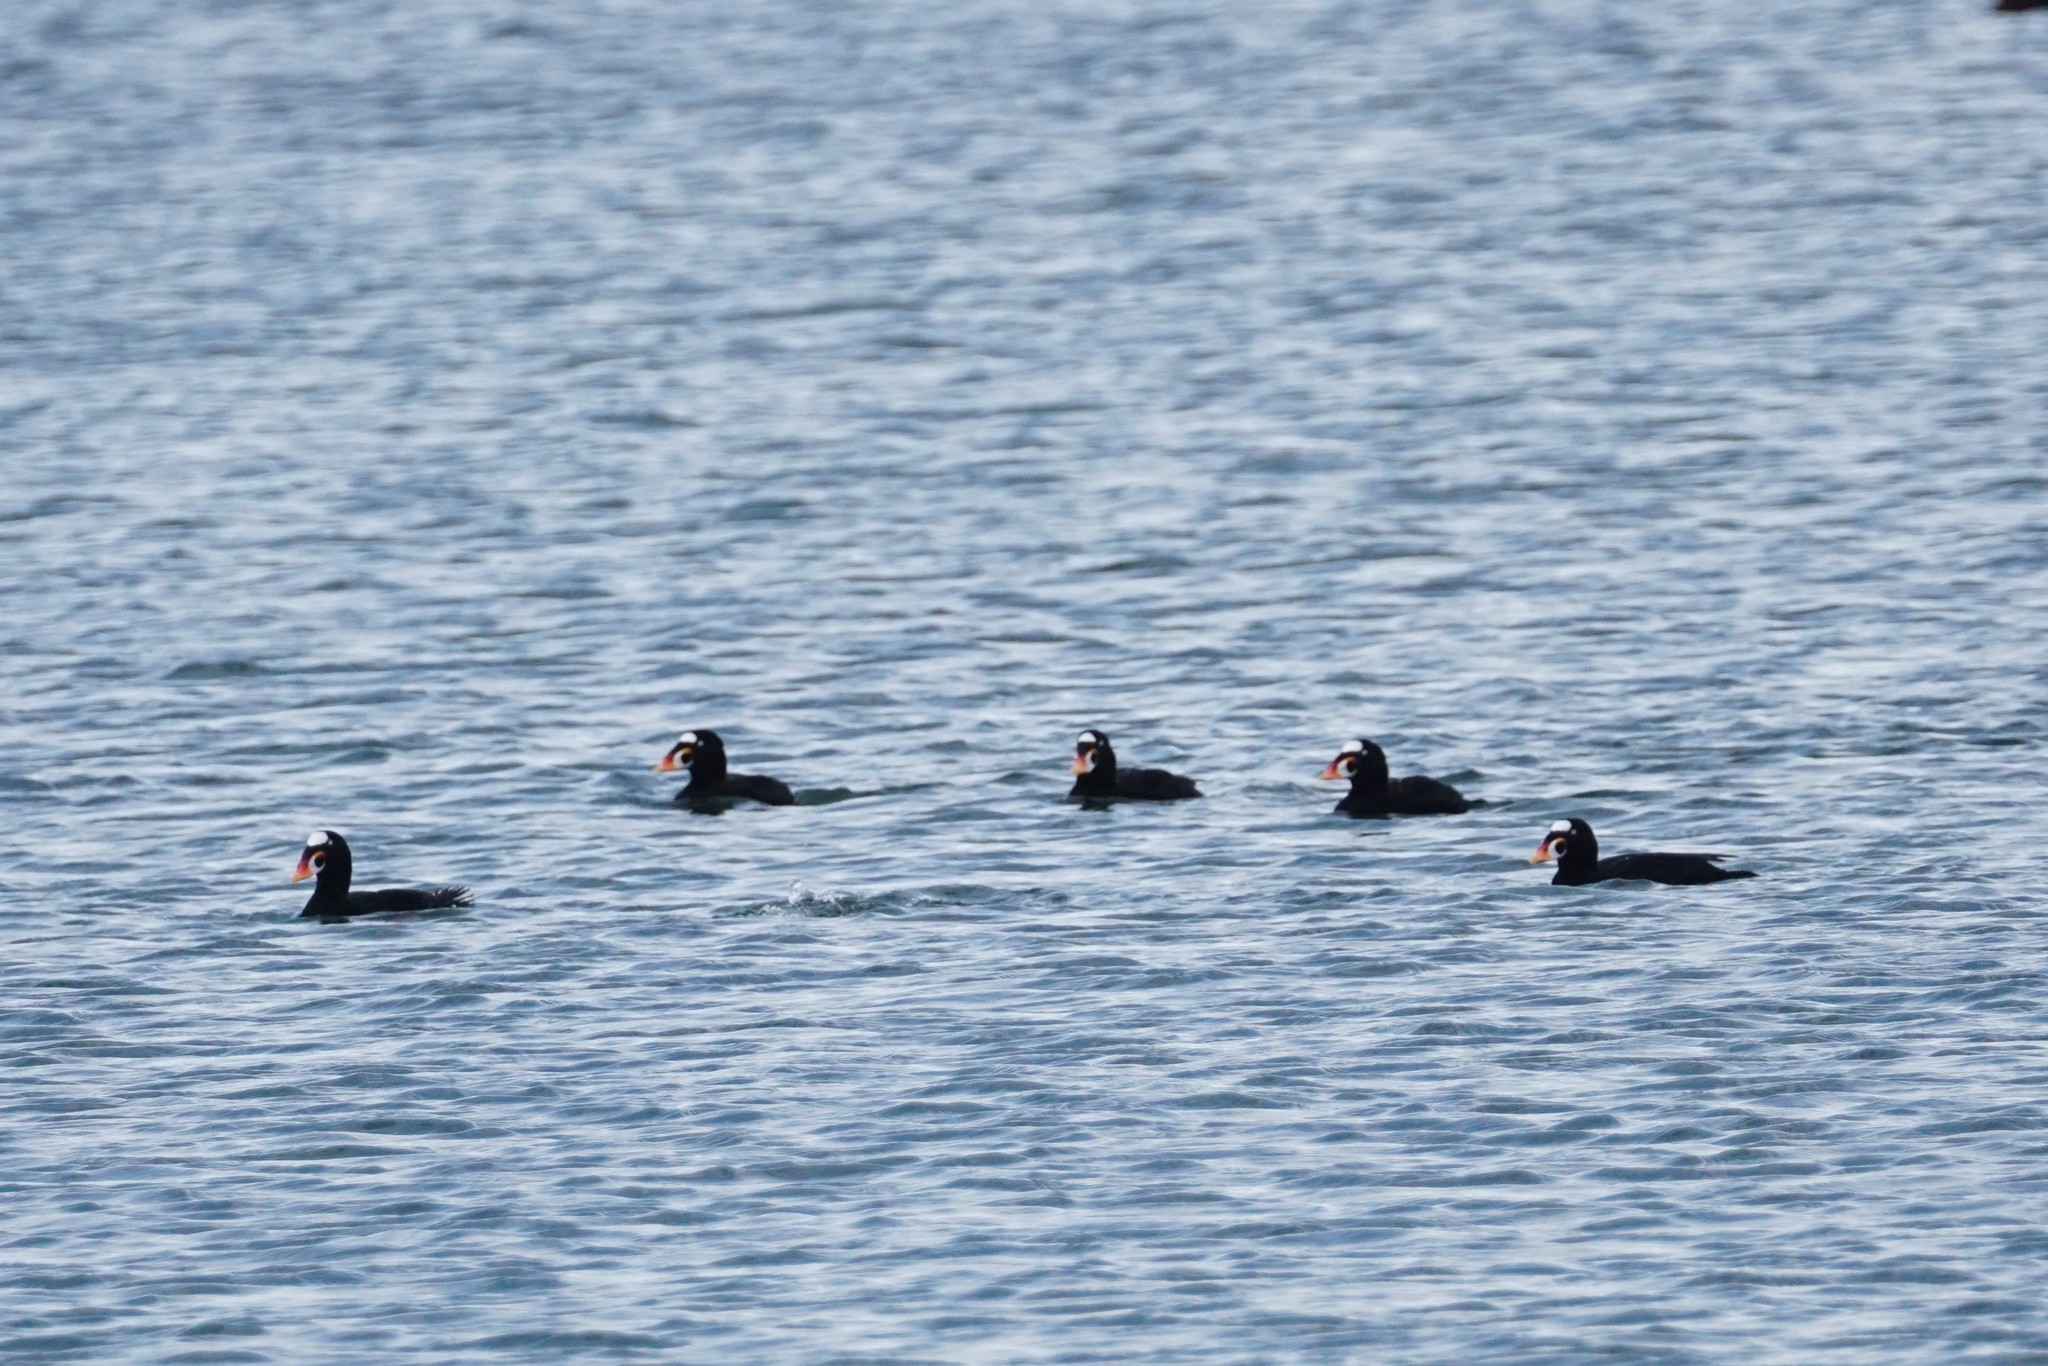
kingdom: Animalia
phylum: Chordata
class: Aves
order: Anseriformes
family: Anatidae
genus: Melanitta
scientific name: Melanitta perspicillata
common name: Surf scoter
